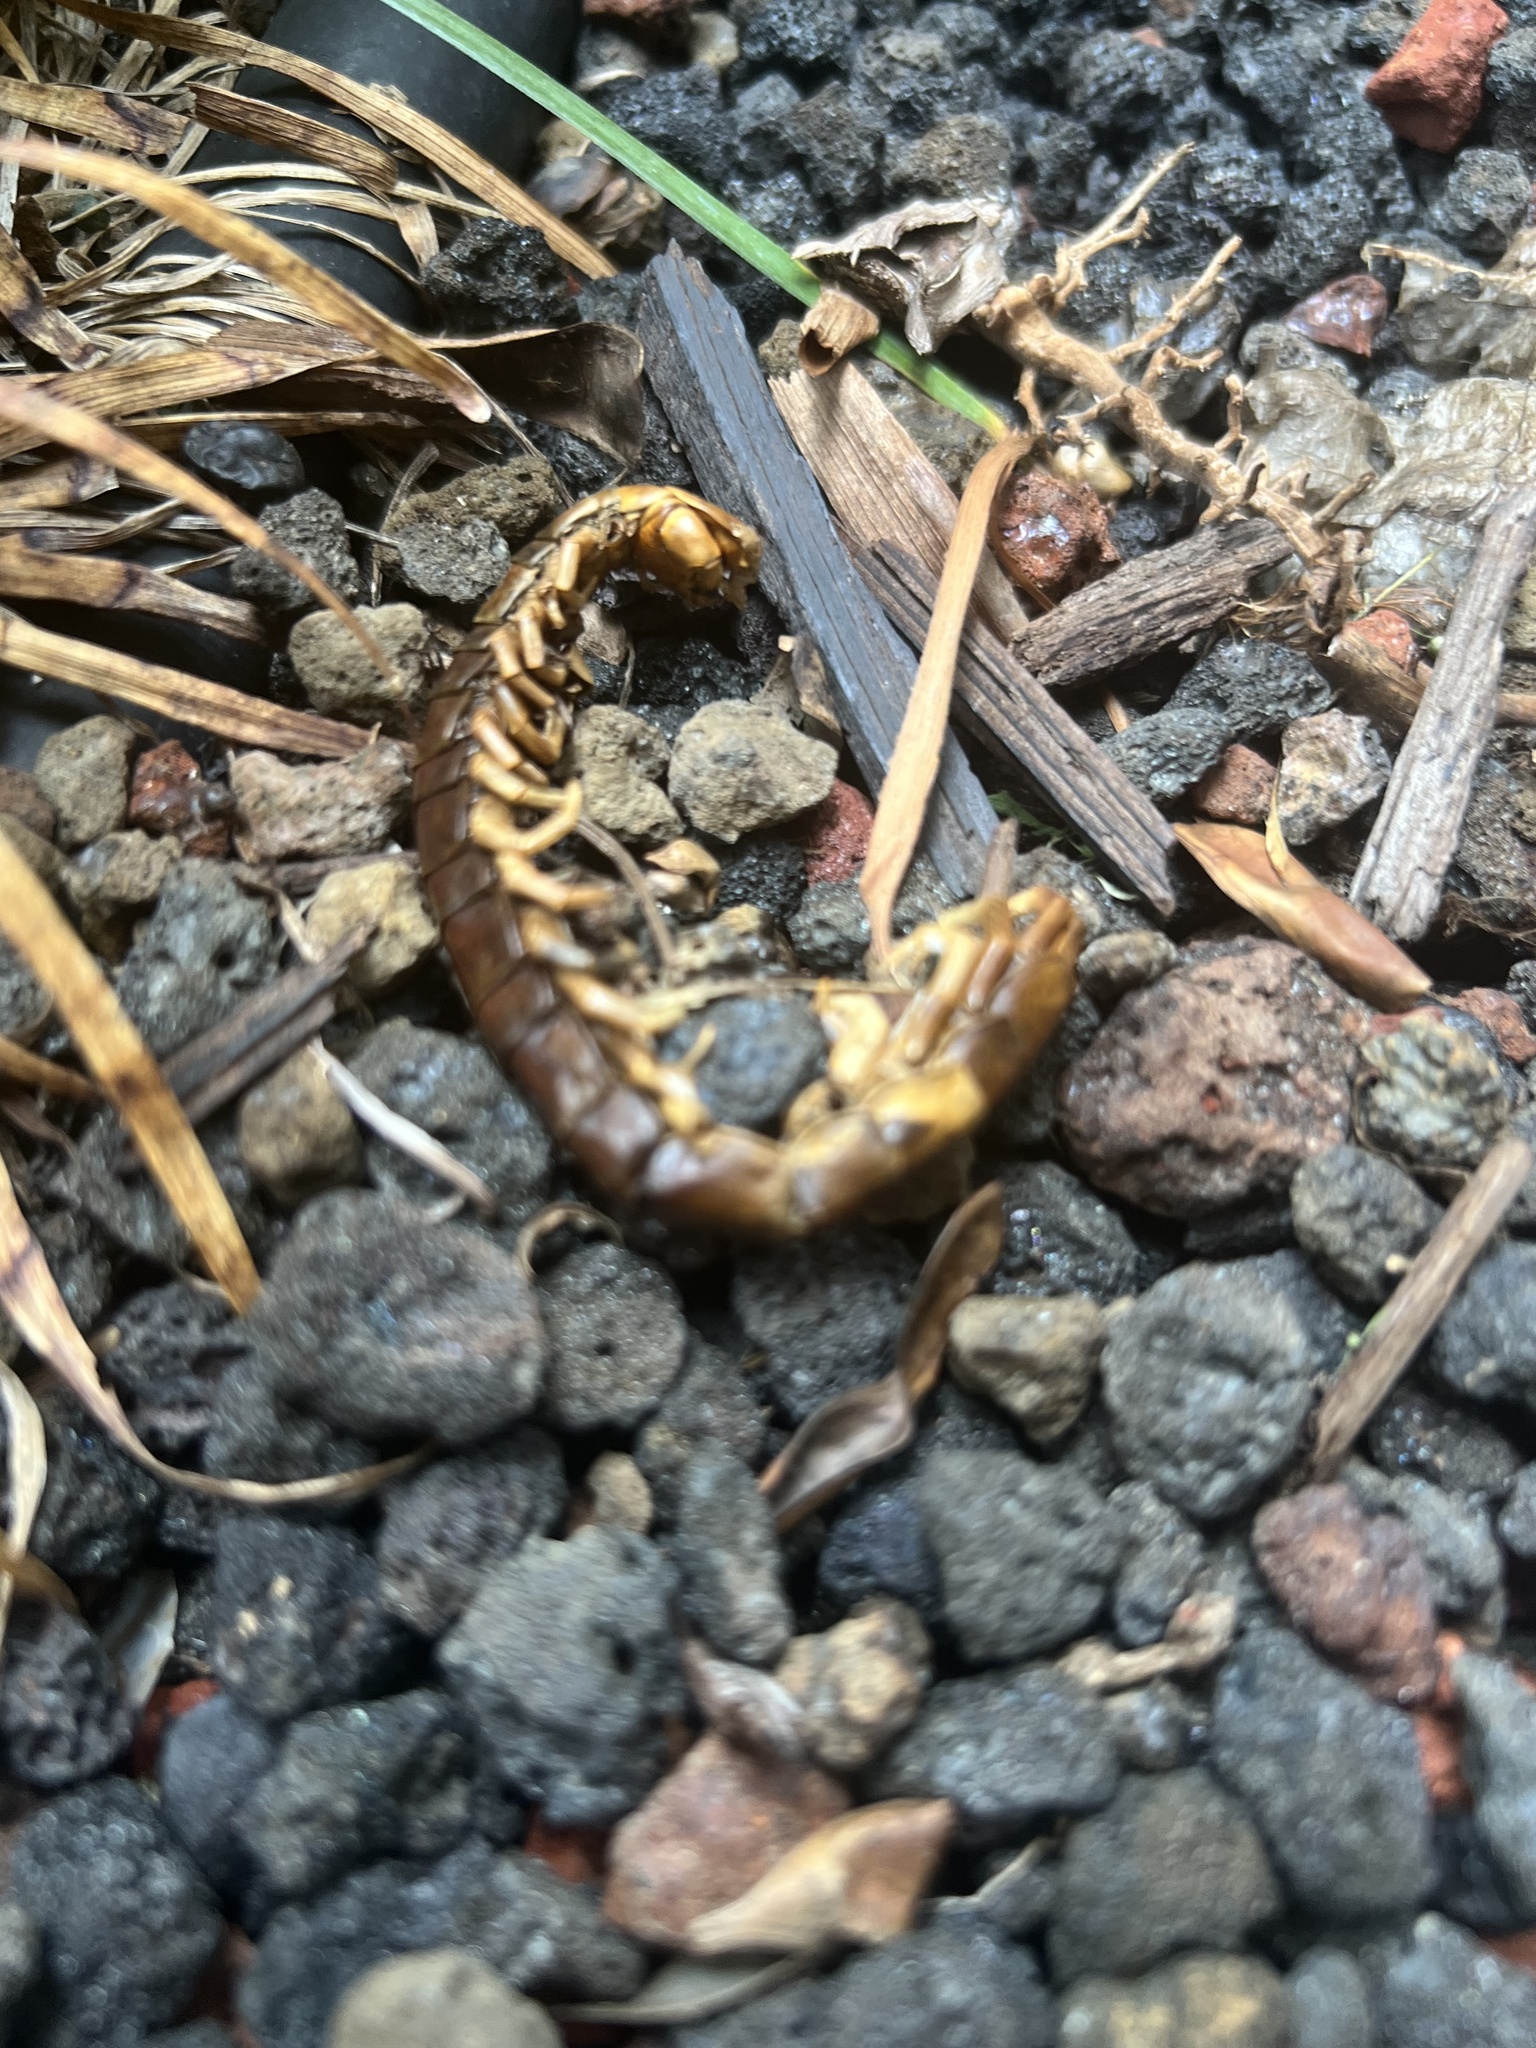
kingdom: Animalia
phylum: Arthropoda
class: Chilopoda
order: Scolopendromorpha
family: Scolopendridae
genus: Scolopendra
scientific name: Scolopendra subspinipes
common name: Centipede
